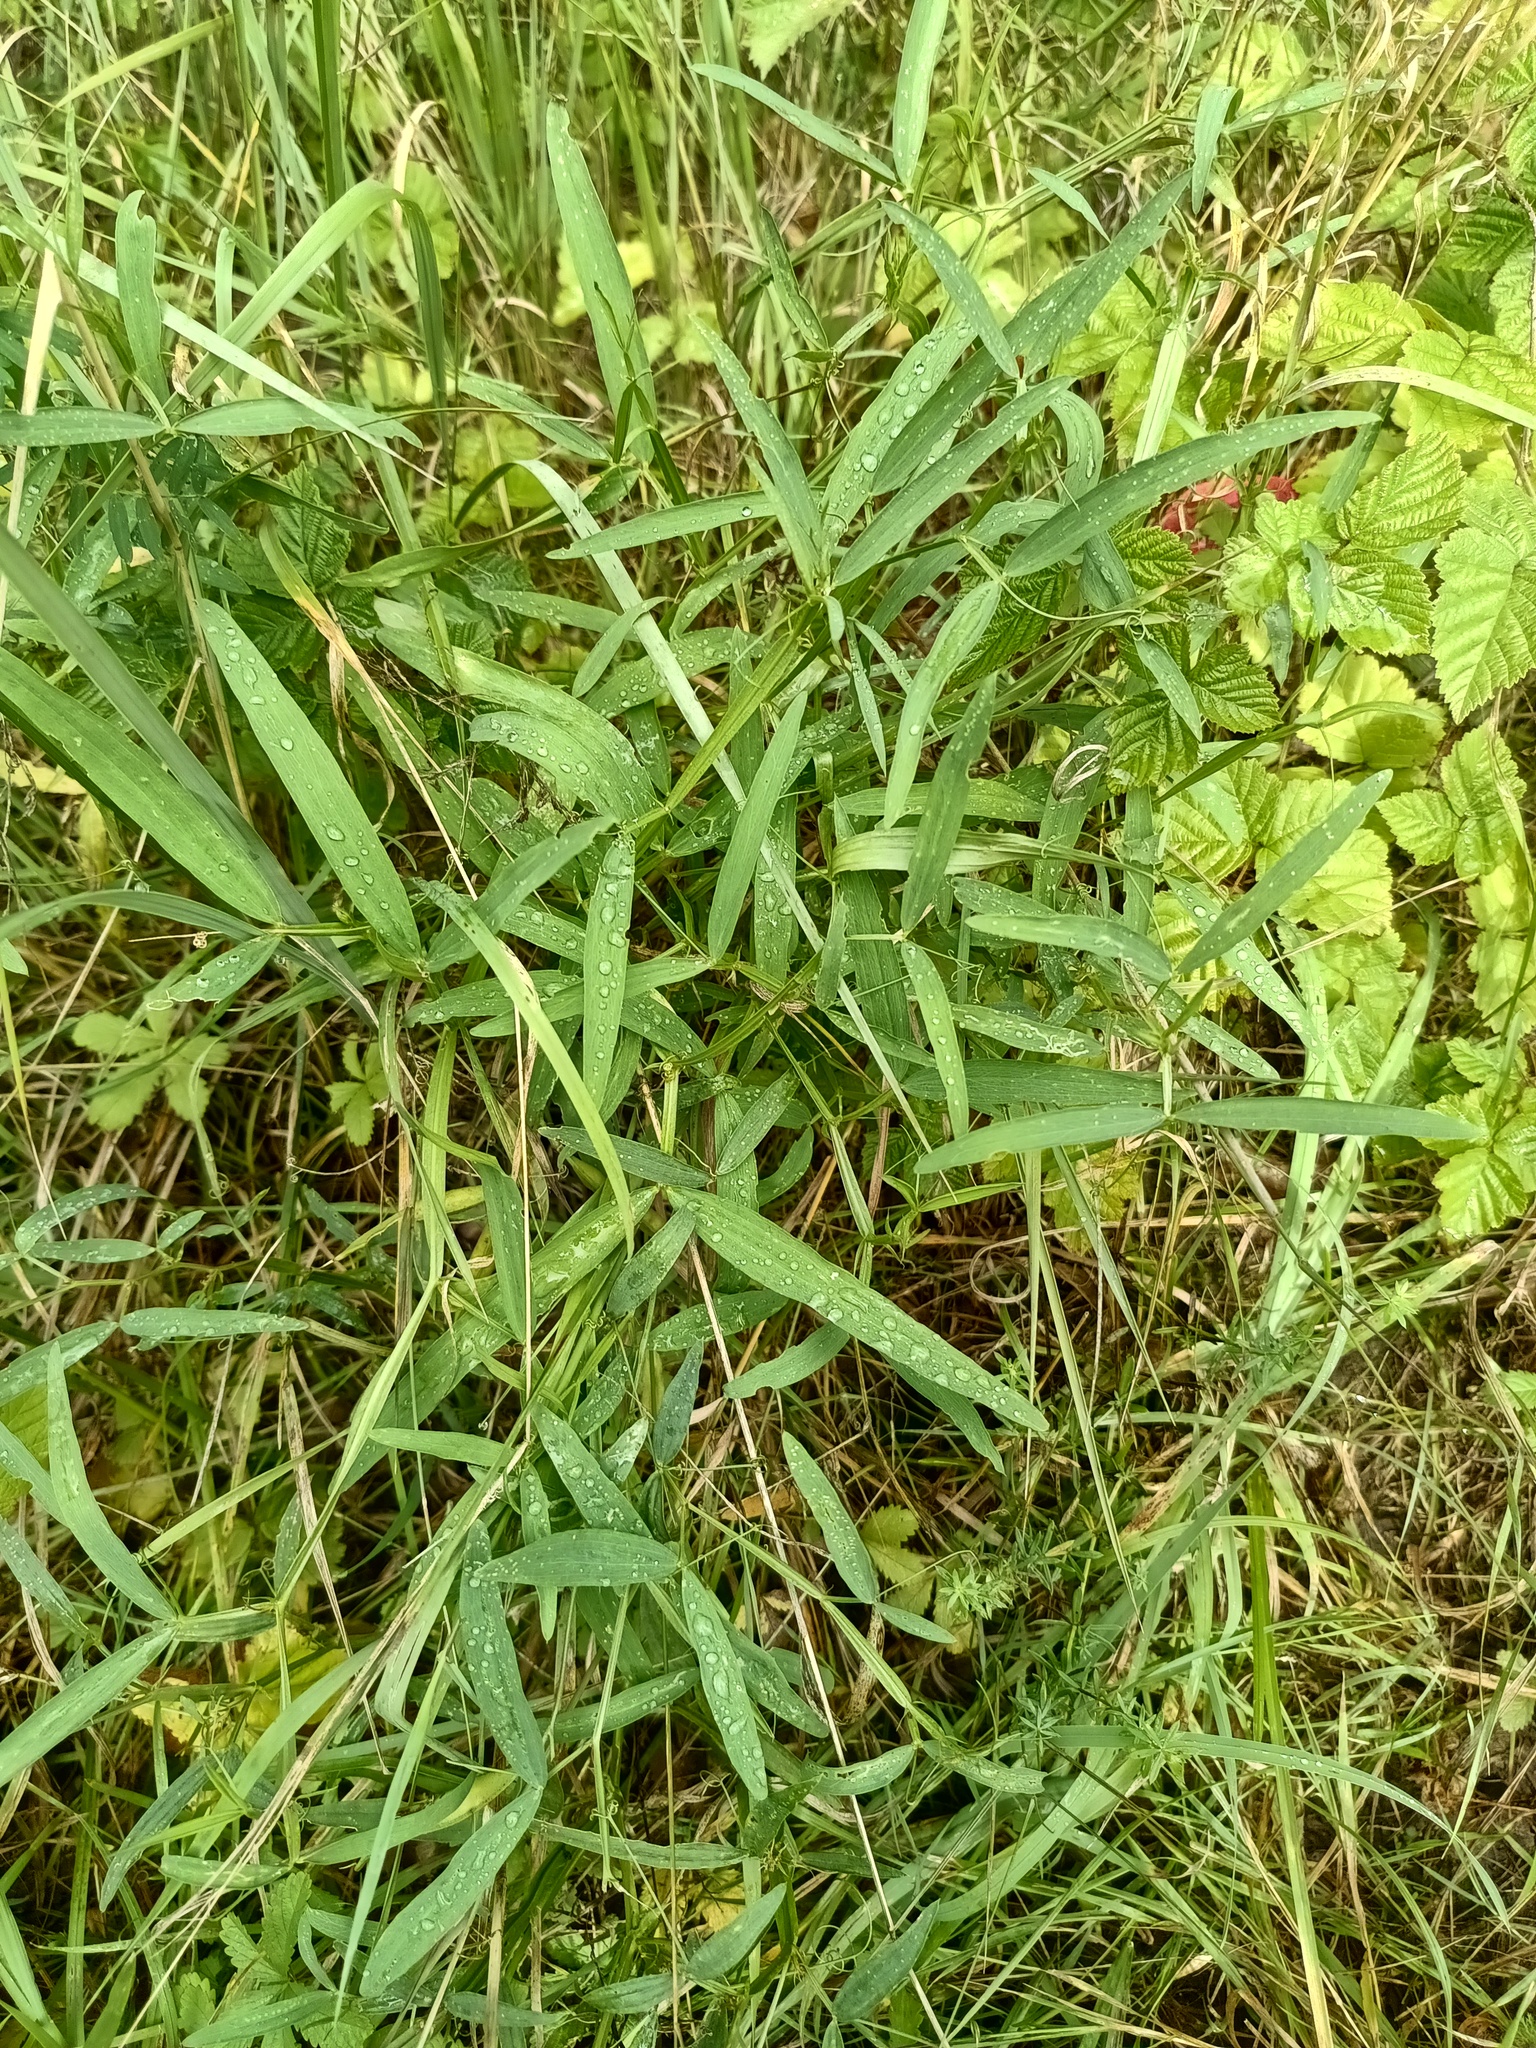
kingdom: Plantae
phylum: Tracheophyta
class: Magnoliopsida
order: Fabales
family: Fabaceae
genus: Lathyrus
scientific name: Lathyrus sylvestris
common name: Flat pea
